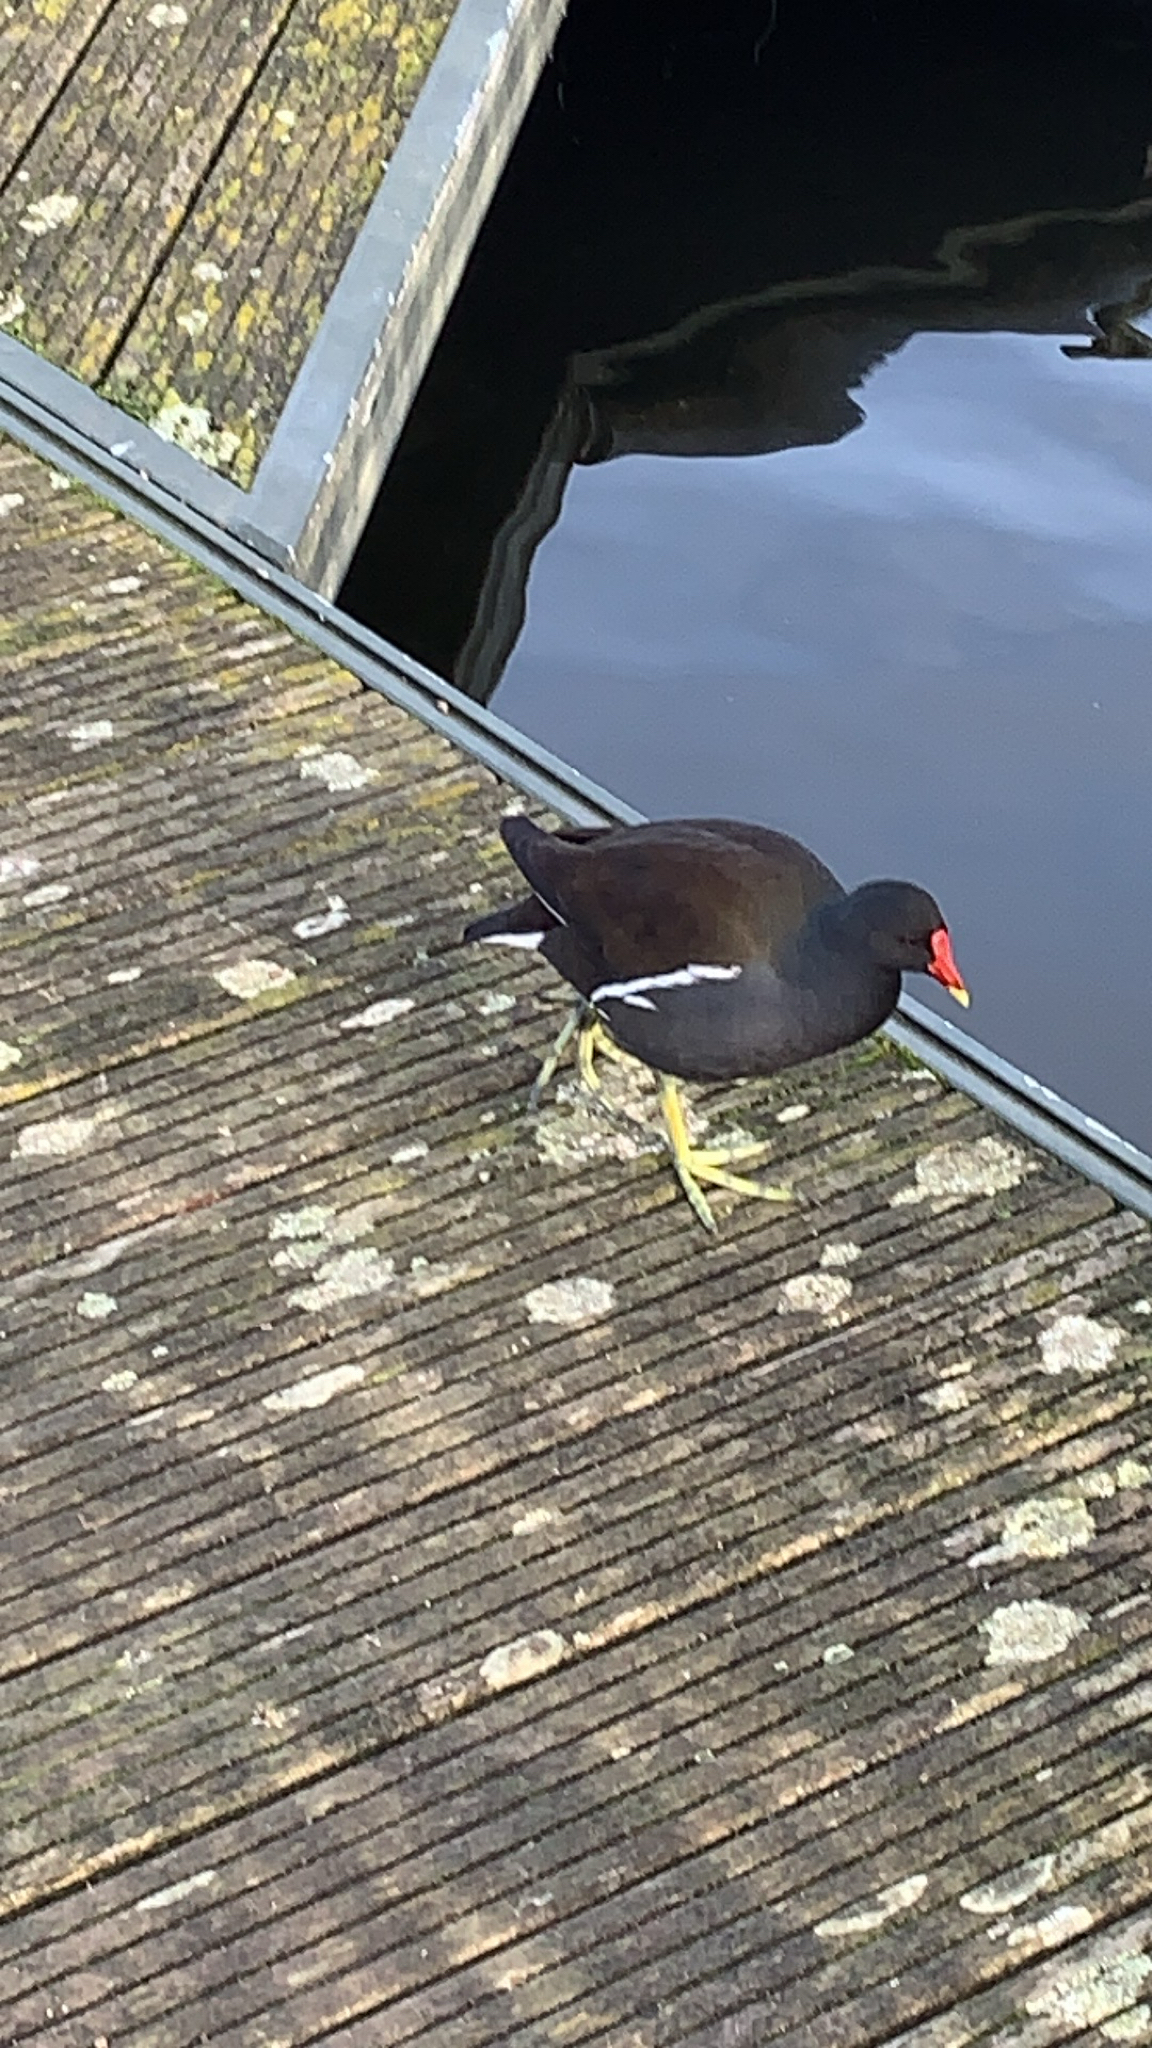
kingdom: Animalia
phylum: Chordata
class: Aves
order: Gruiformes
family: Rallidae
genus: Gallinula
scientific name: Gallinula chloropus
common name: Common moorhen
